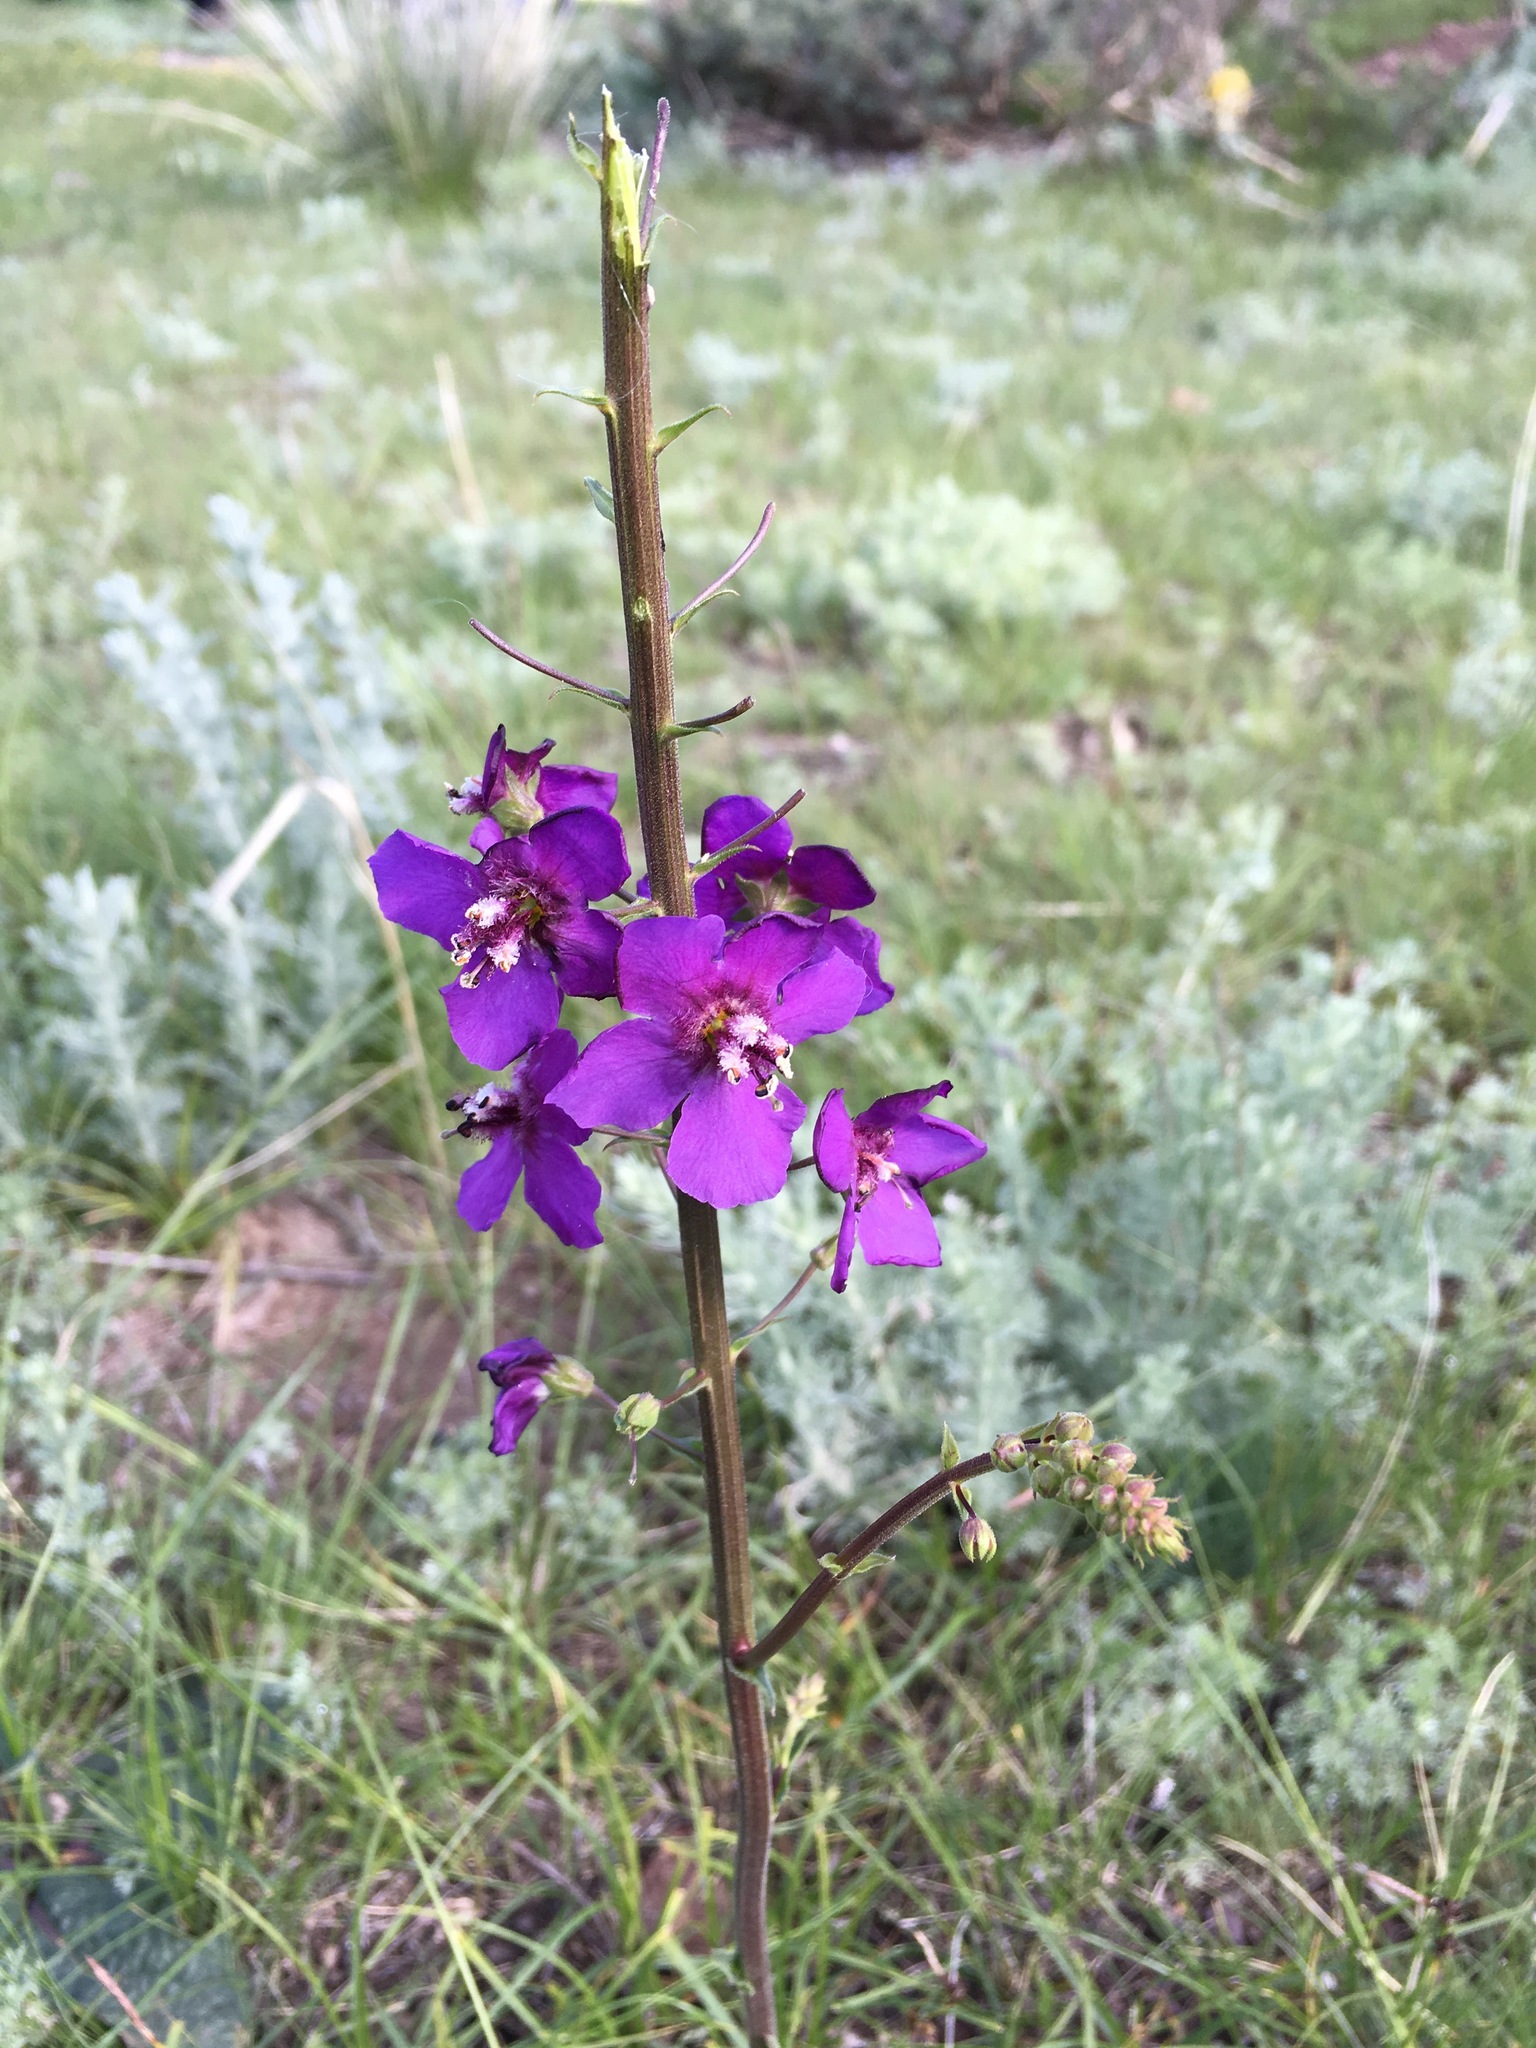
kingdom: Plantae
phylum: Tracheophyta
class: Magnoliopsida
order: Lamiales
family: Scrophulariaceae
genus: Verbascum
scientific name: Verbascum phoeniceum
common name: Purple mullein
